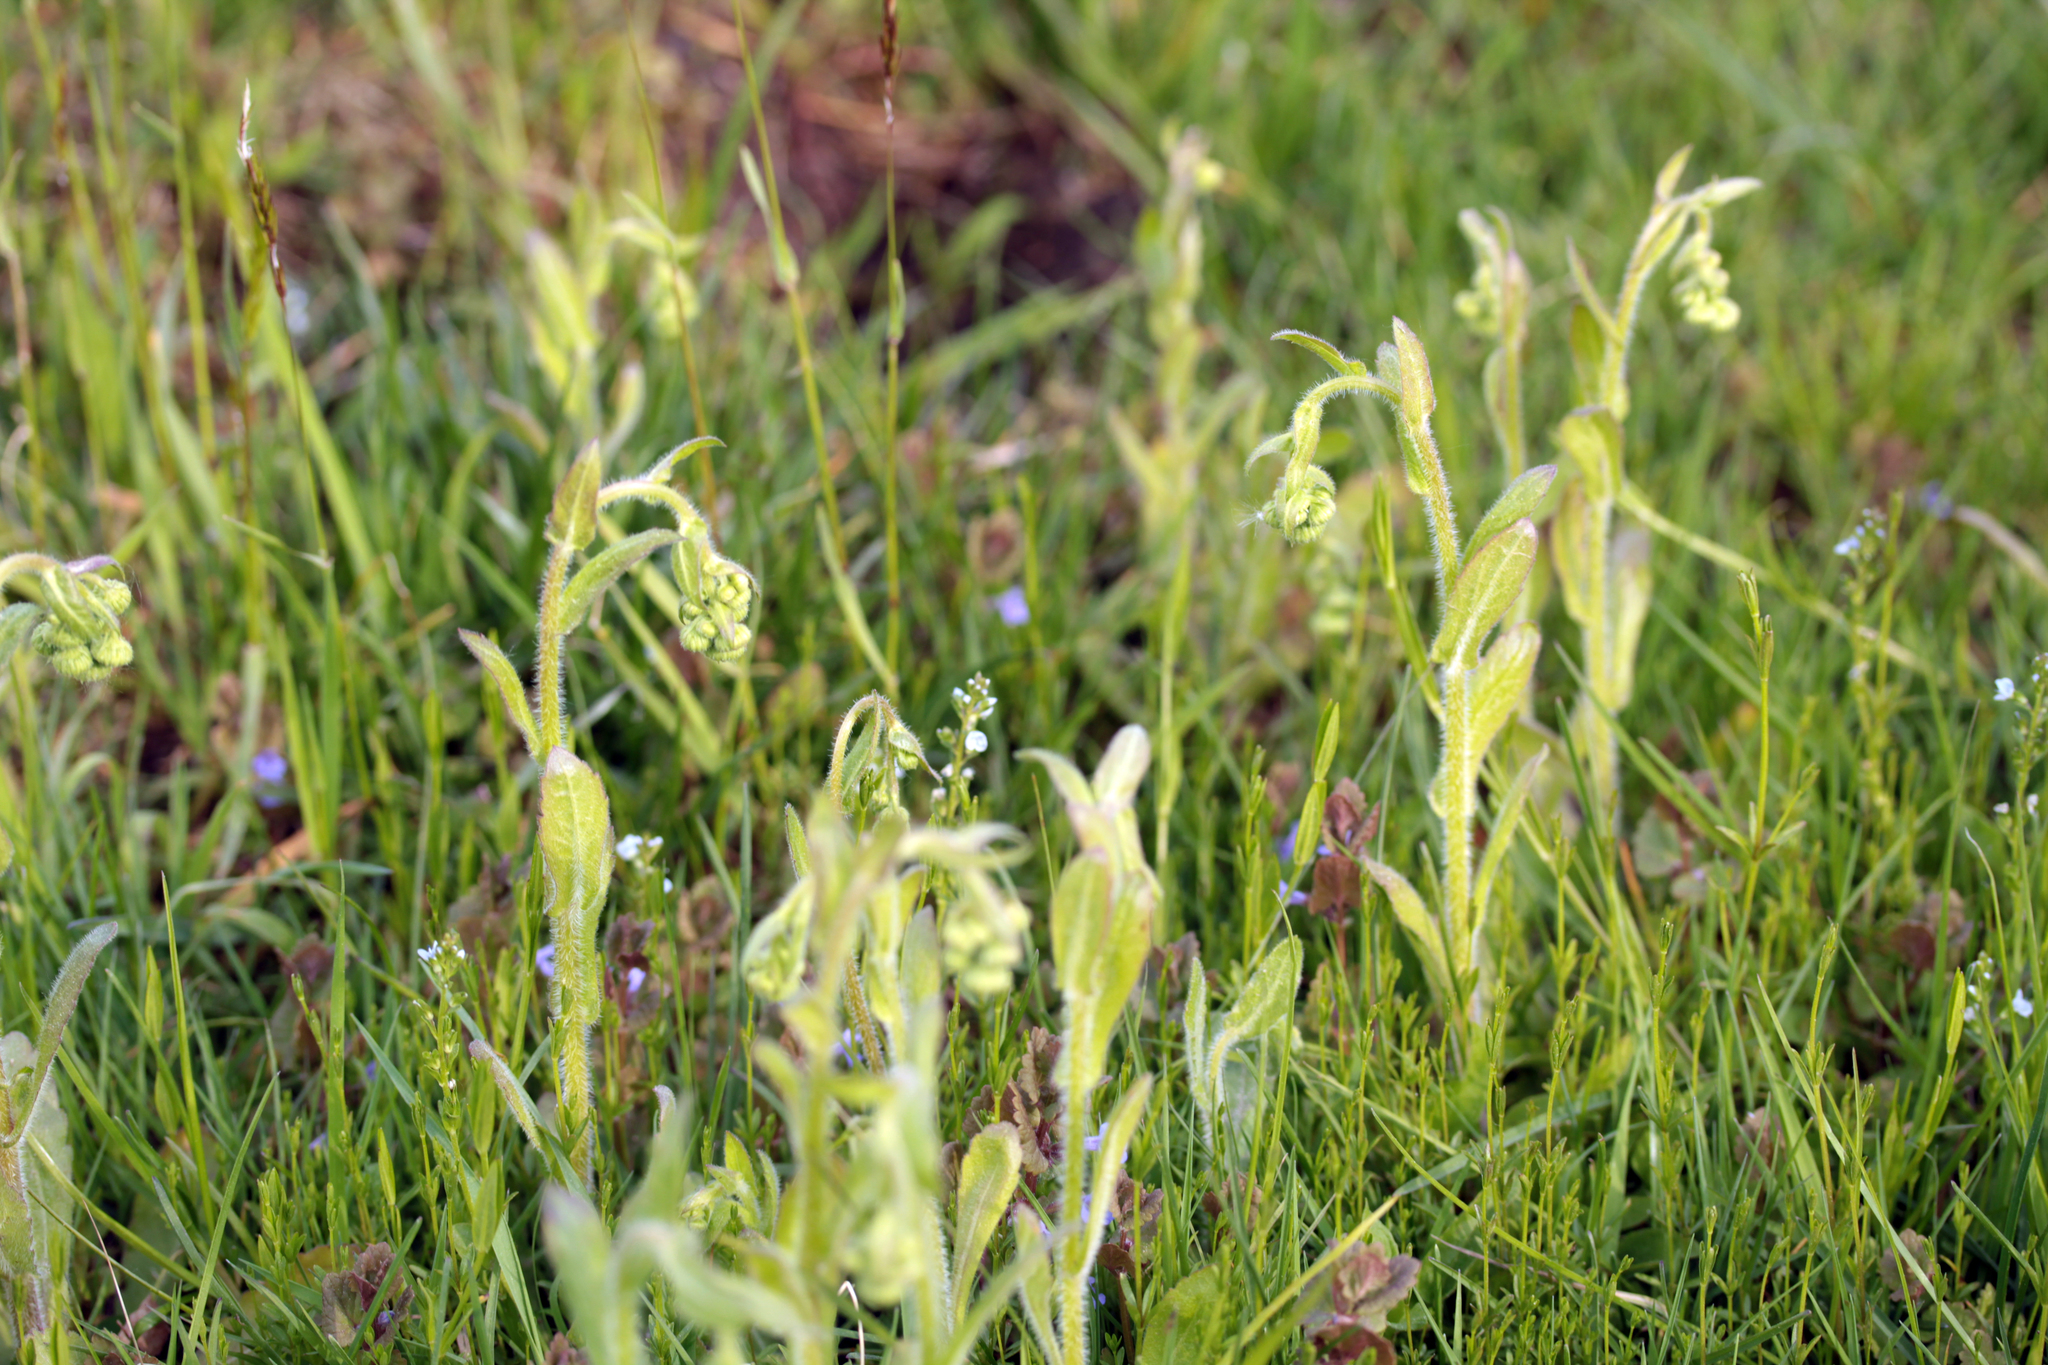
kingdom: Plantae
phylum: Tracheophyta
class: Magnoliopsida
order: Asterales
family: Asteraceae
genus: Erigeron
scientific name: Erigeron philadelphicus
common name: Robin's-plantain
